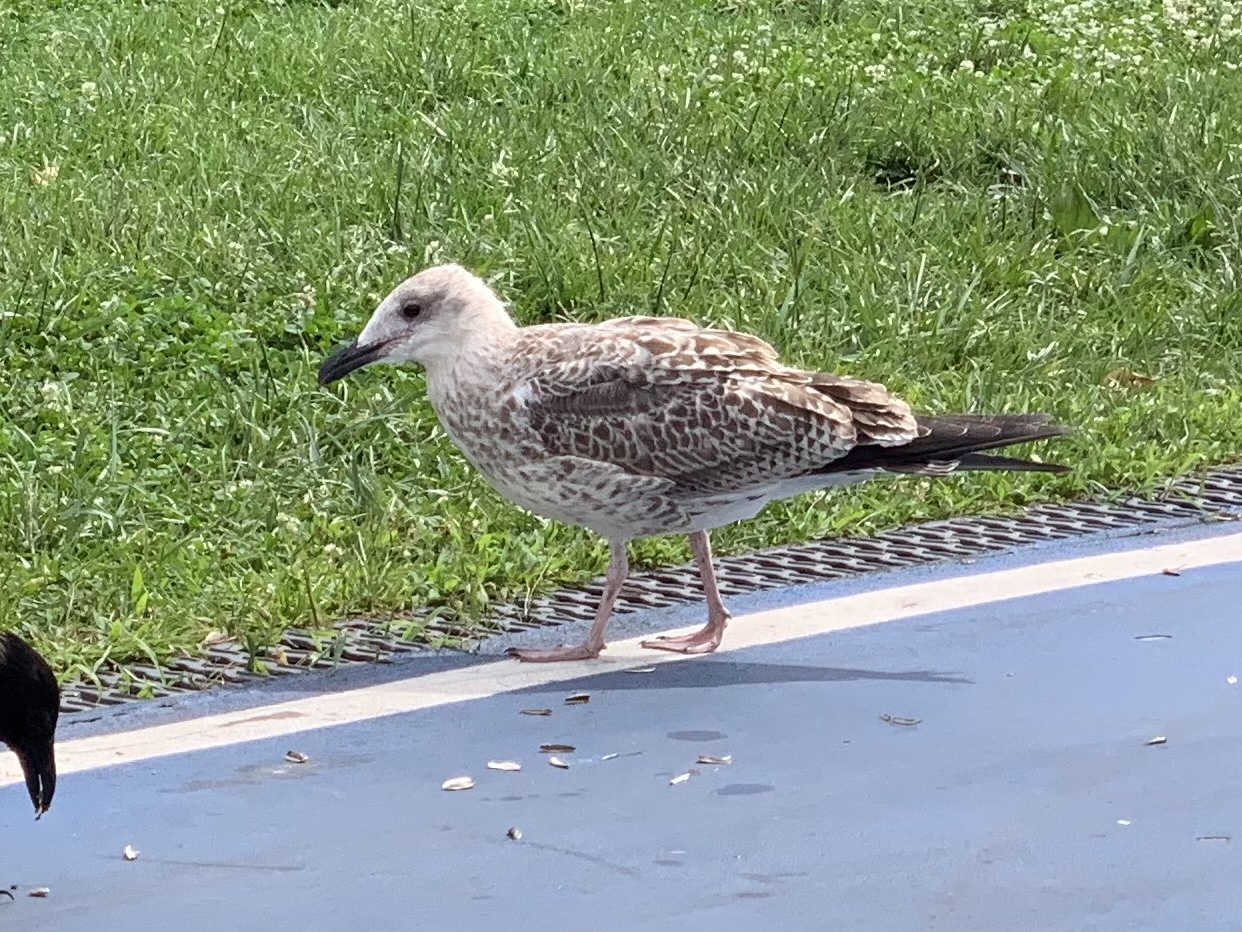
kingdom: Animalia
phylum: Chordata
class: Aves
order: Charadriiformes
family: Laridae
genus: Larus
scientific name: Larus michahellis
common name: Yellow-legged gull
